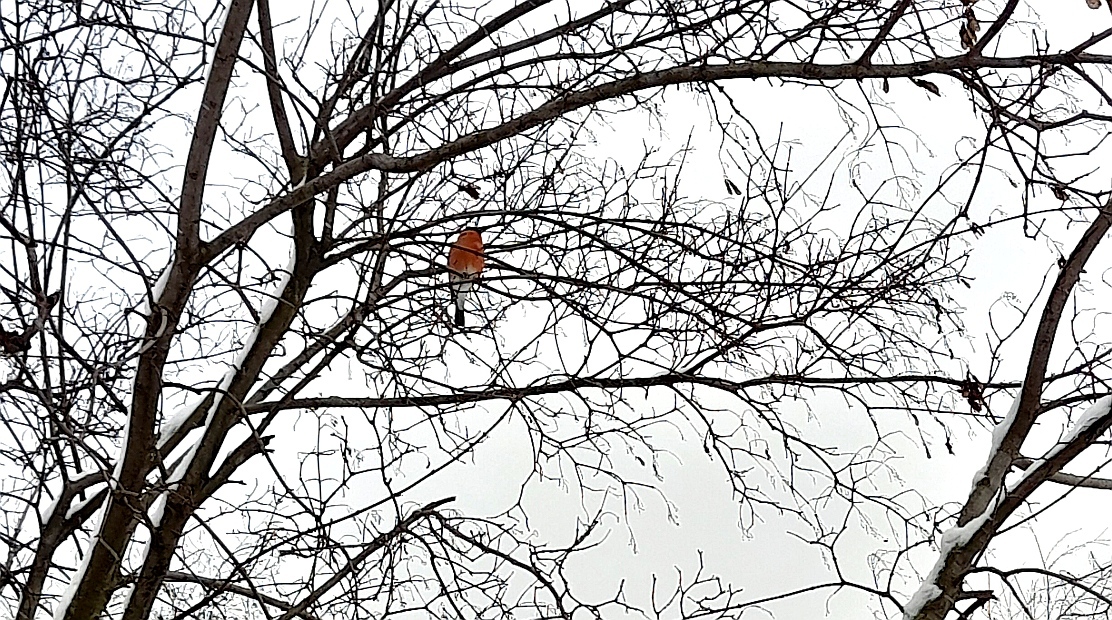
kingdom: Animalia
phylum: Chordata
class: Aves
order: Passeriformes
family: Fringillidae
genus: Pyrrhula
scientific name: Pyrrhula pyrrhula
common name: Eurasian bullfinch
